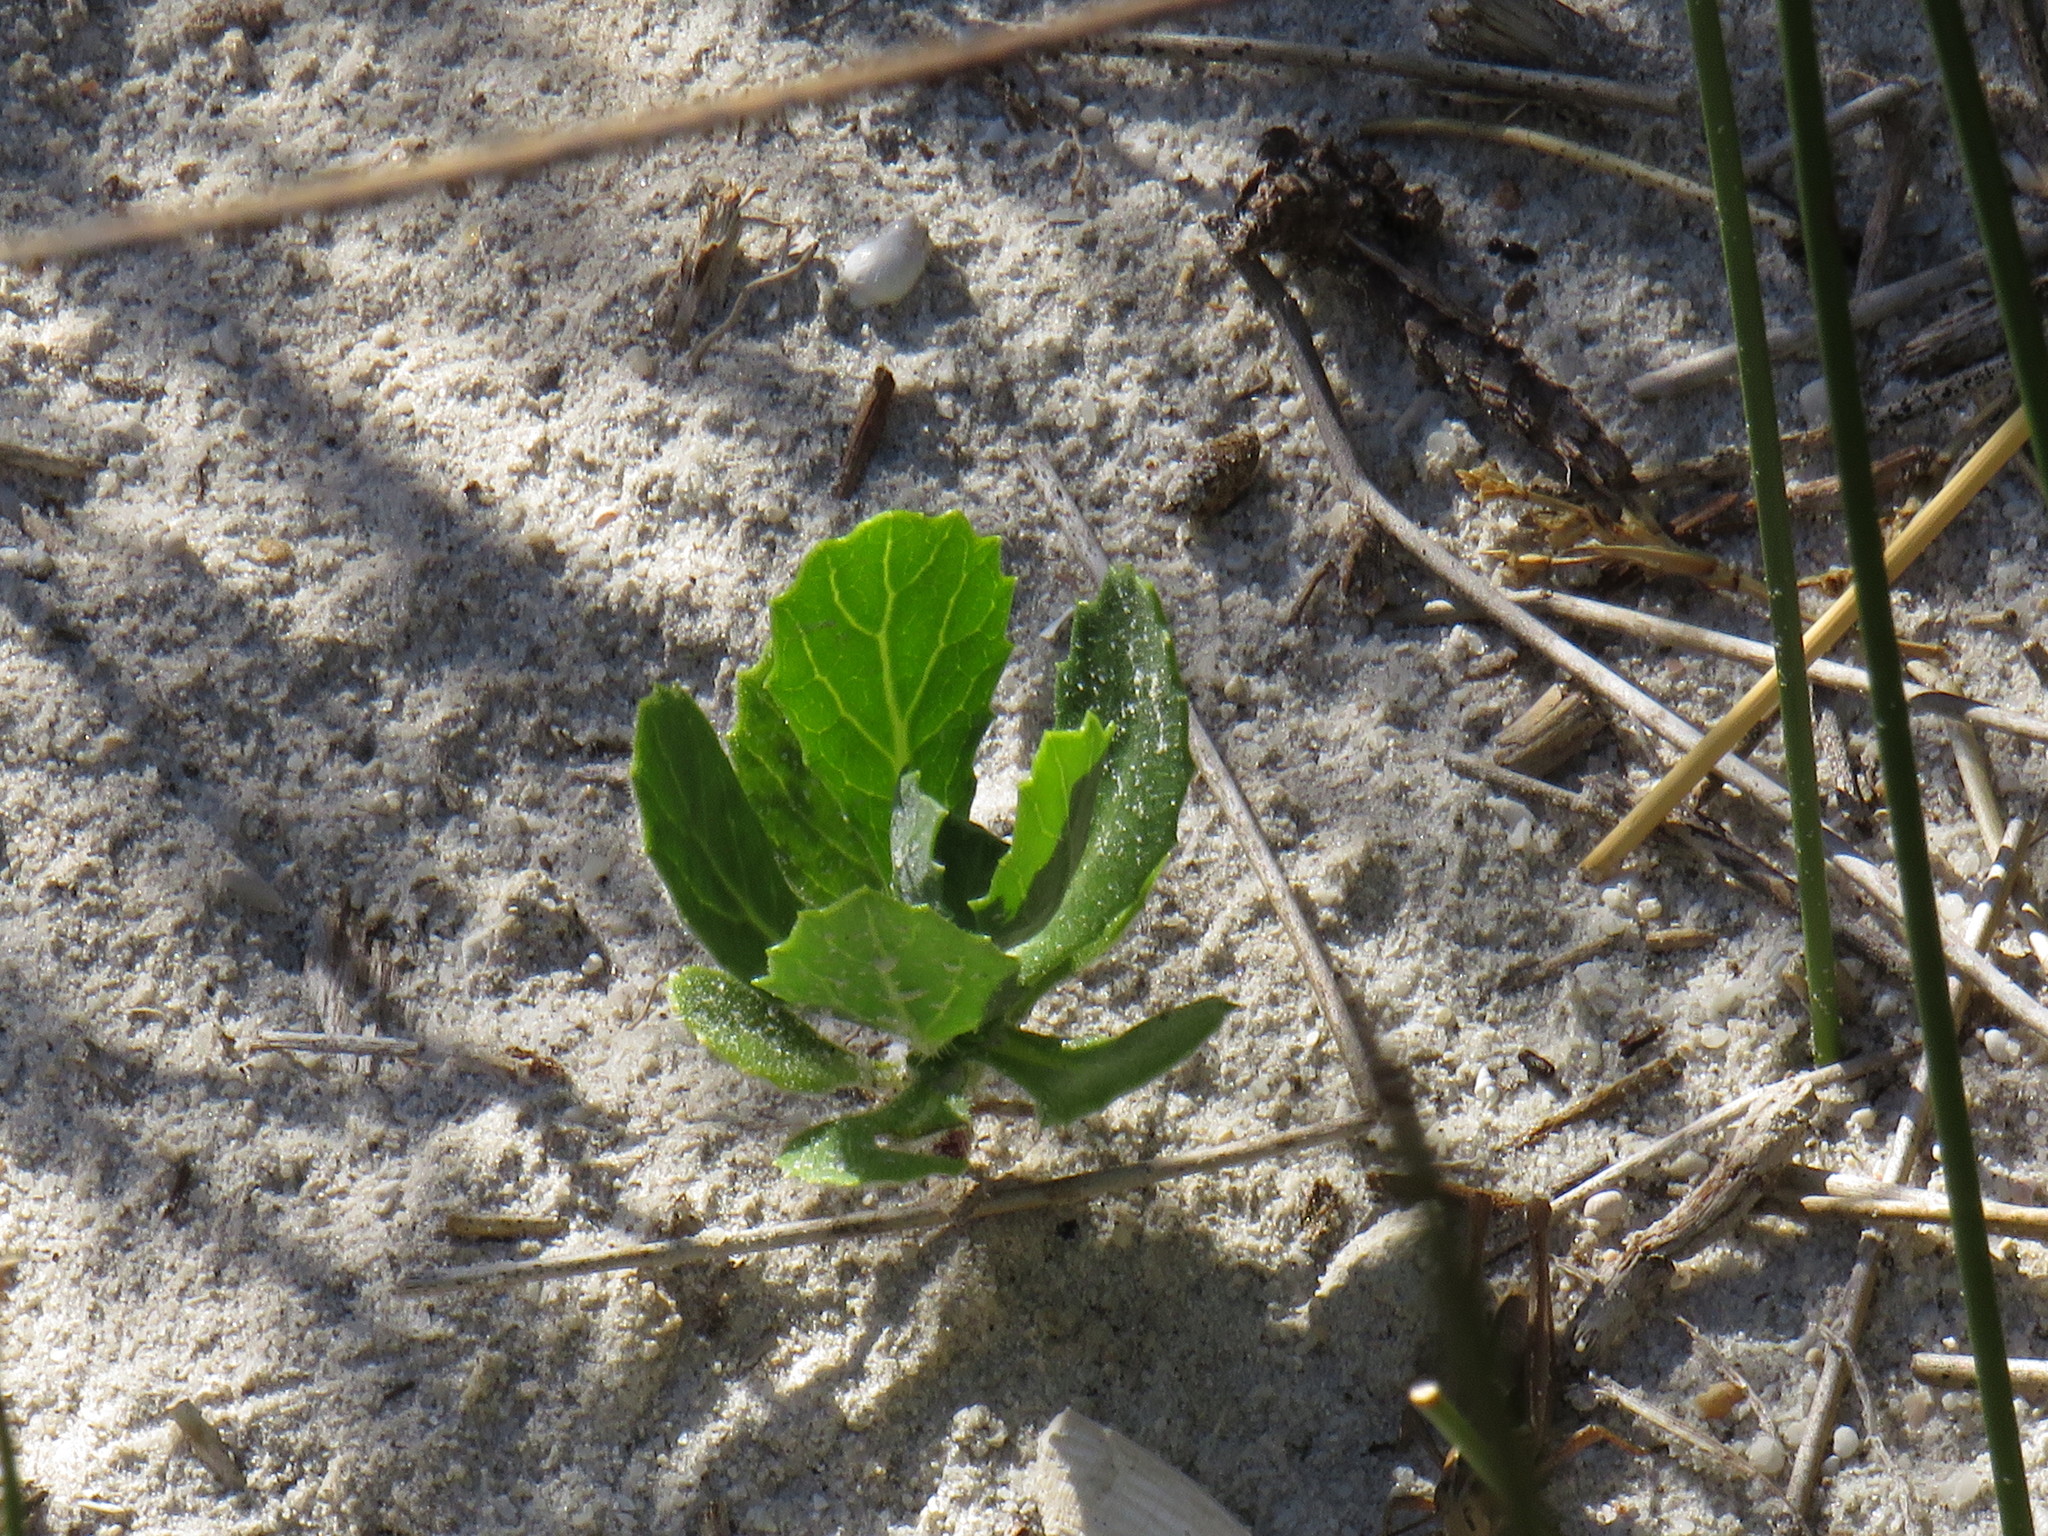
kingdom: Plantae
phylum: Tracheophyta
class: Magnoliopsida
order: Asterales
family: Asteraceae
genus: Senecio
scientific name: Senecio halimifolius
